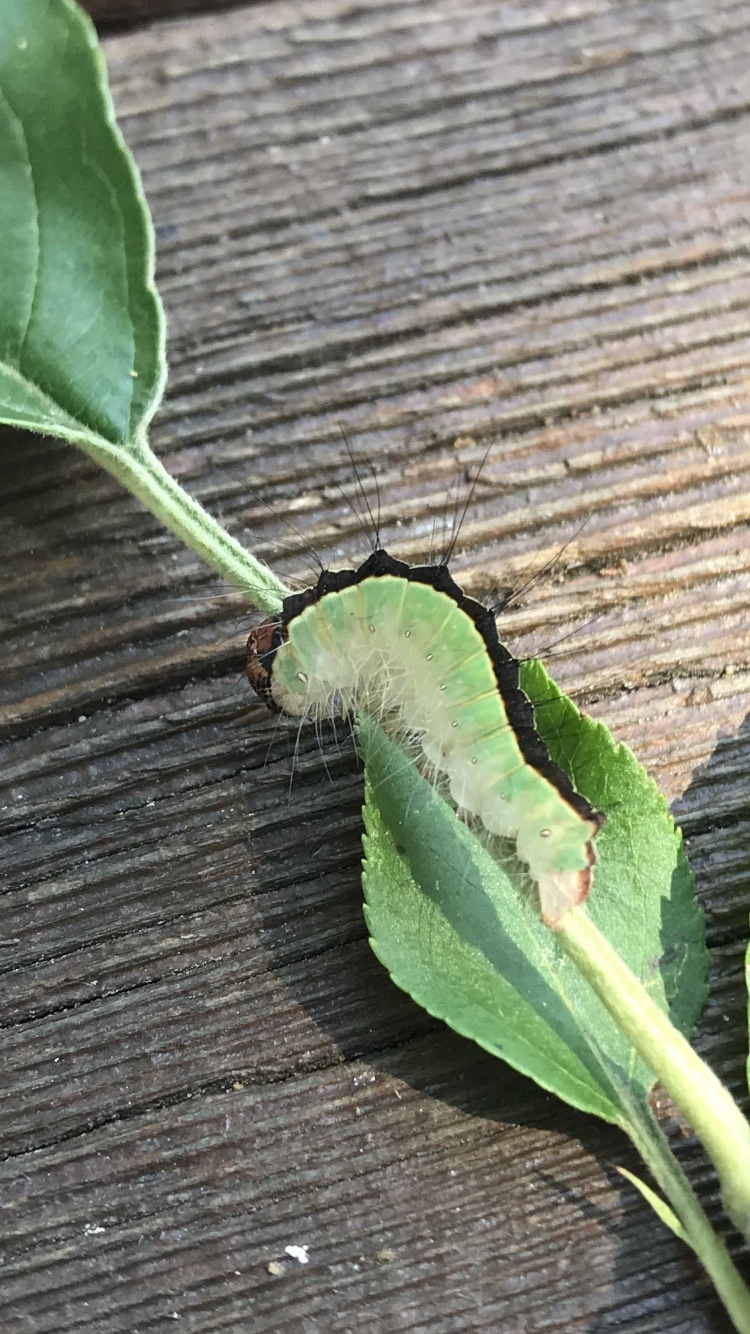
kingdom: Animalia
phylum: Arthropoda
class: Insecta
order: Lepidoptera
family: Noctuidae
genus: Acronicta
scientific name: Acronicta superans
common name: Splendid dagger
